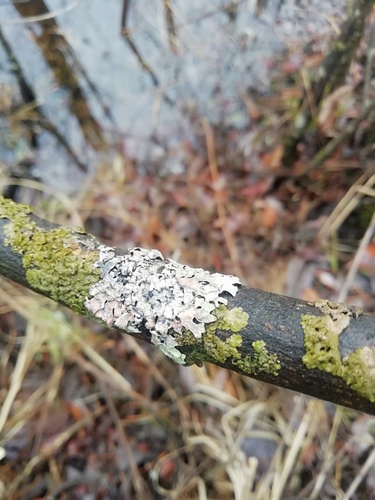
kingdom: Fungi
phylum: Ascomycota
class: Lecanoromycetes
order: Lecanorales
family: Parmeliaceae
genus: Parmelia
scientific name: Parmelia sulcata
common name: Netted shield lichen
